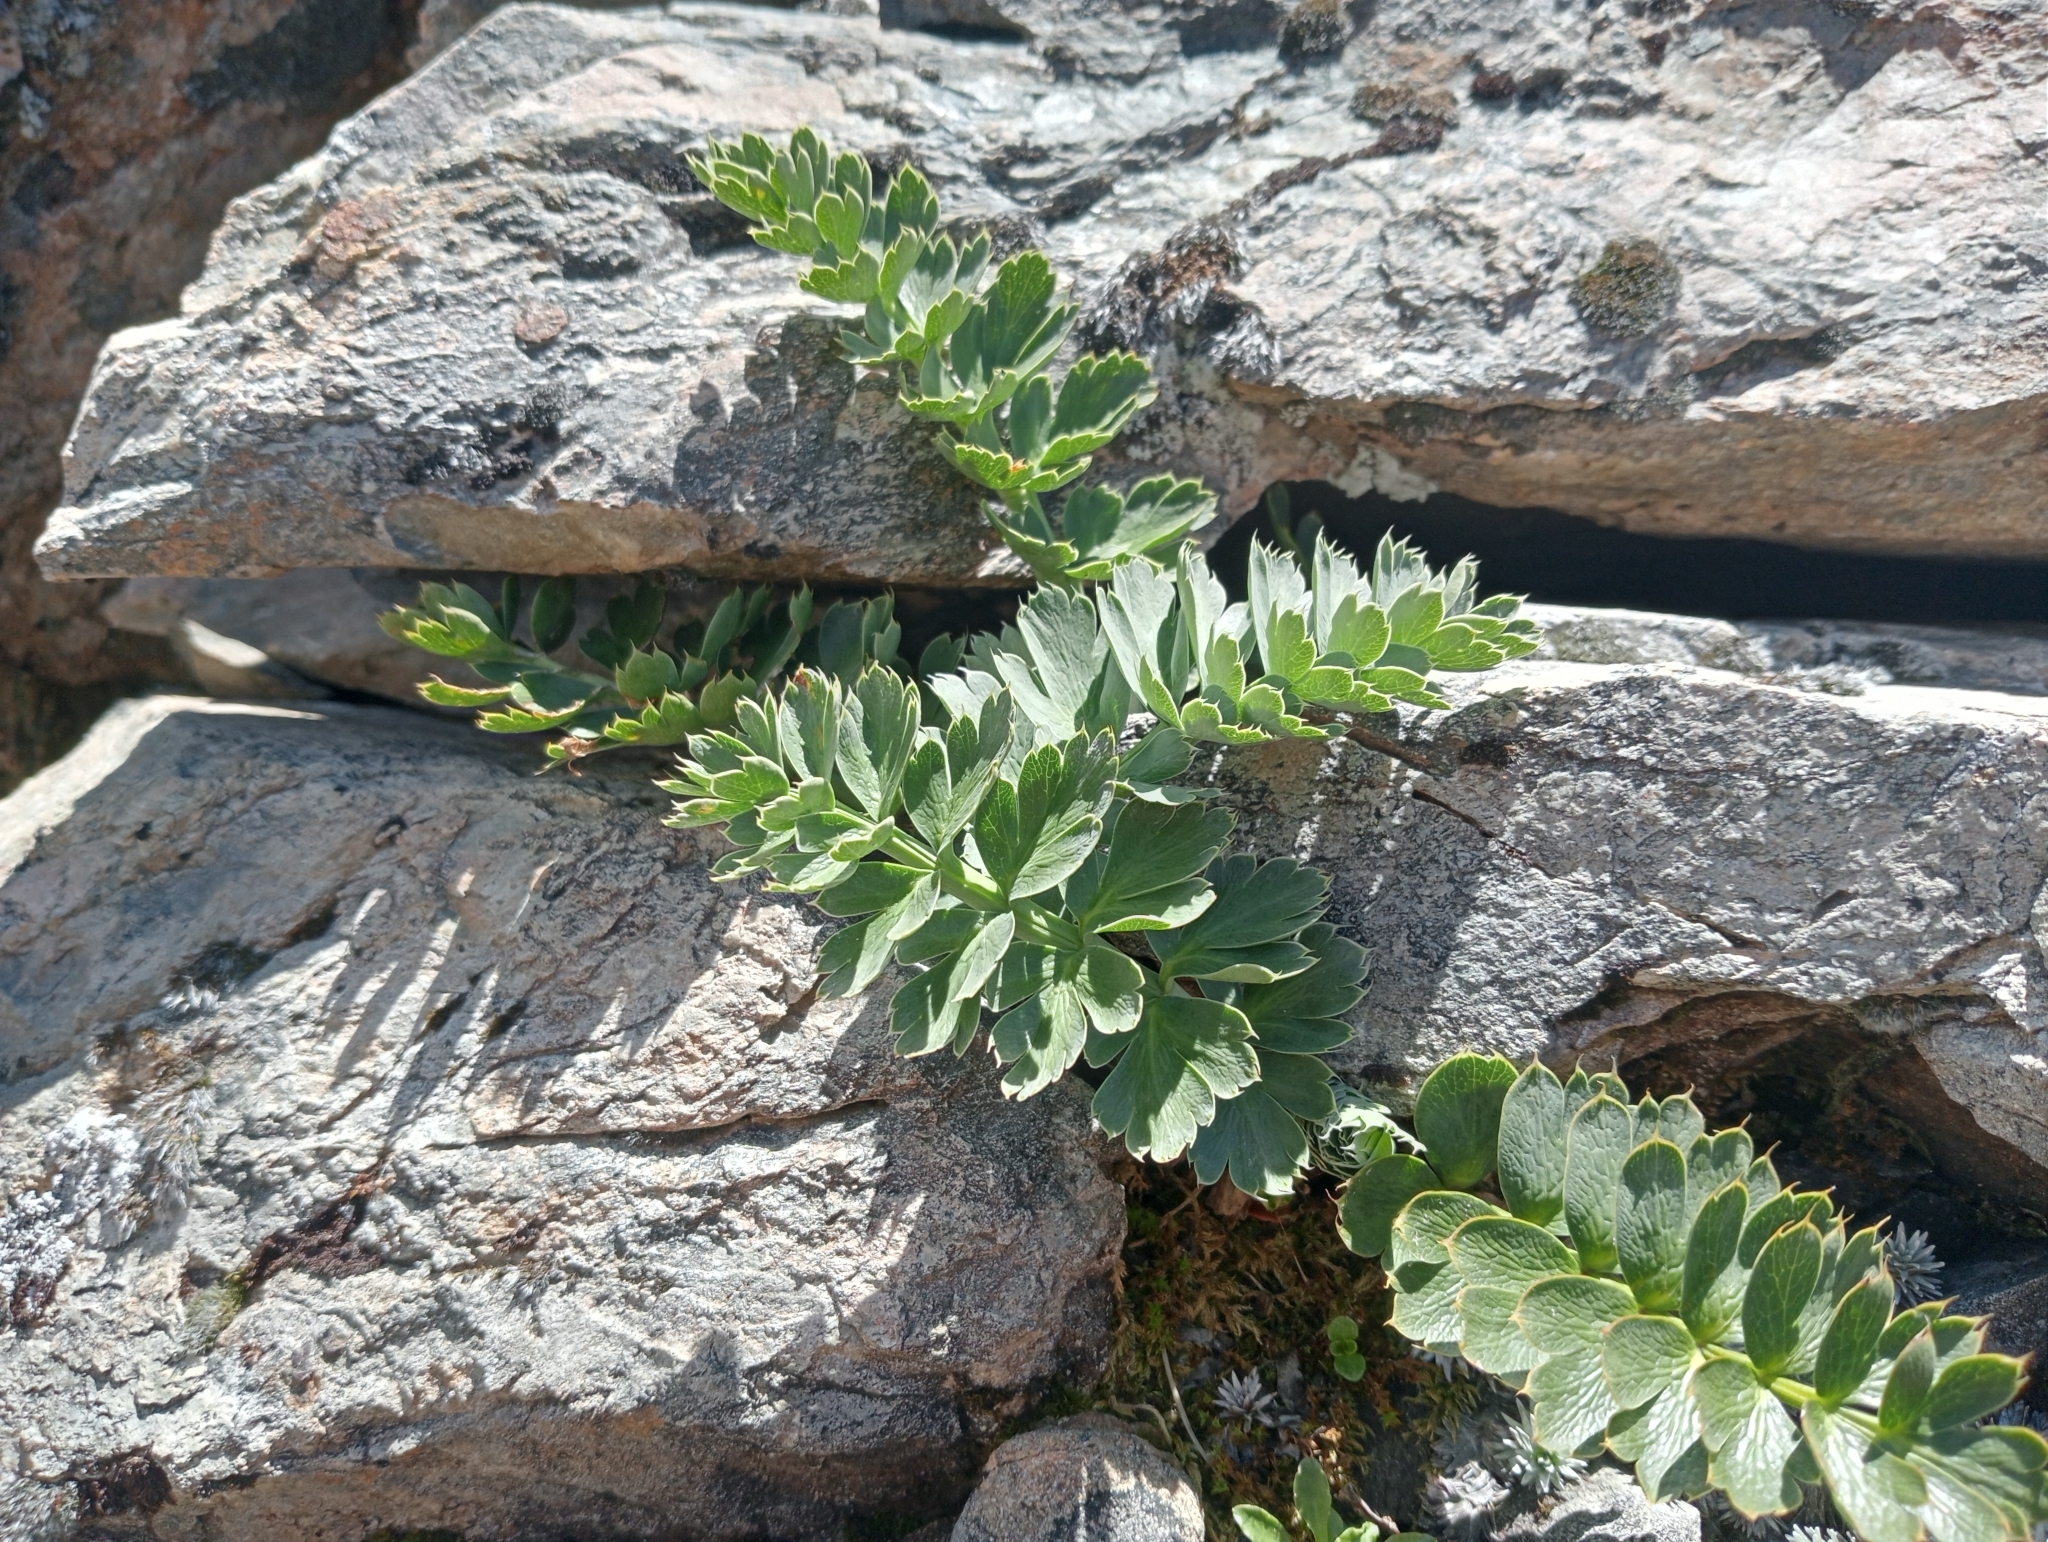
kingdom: Plantae
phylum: Tracheophyta
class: Magnoliopsida
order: Apiales
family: Apiaceae
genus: Anisotome
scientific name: Anisotome pilifera
